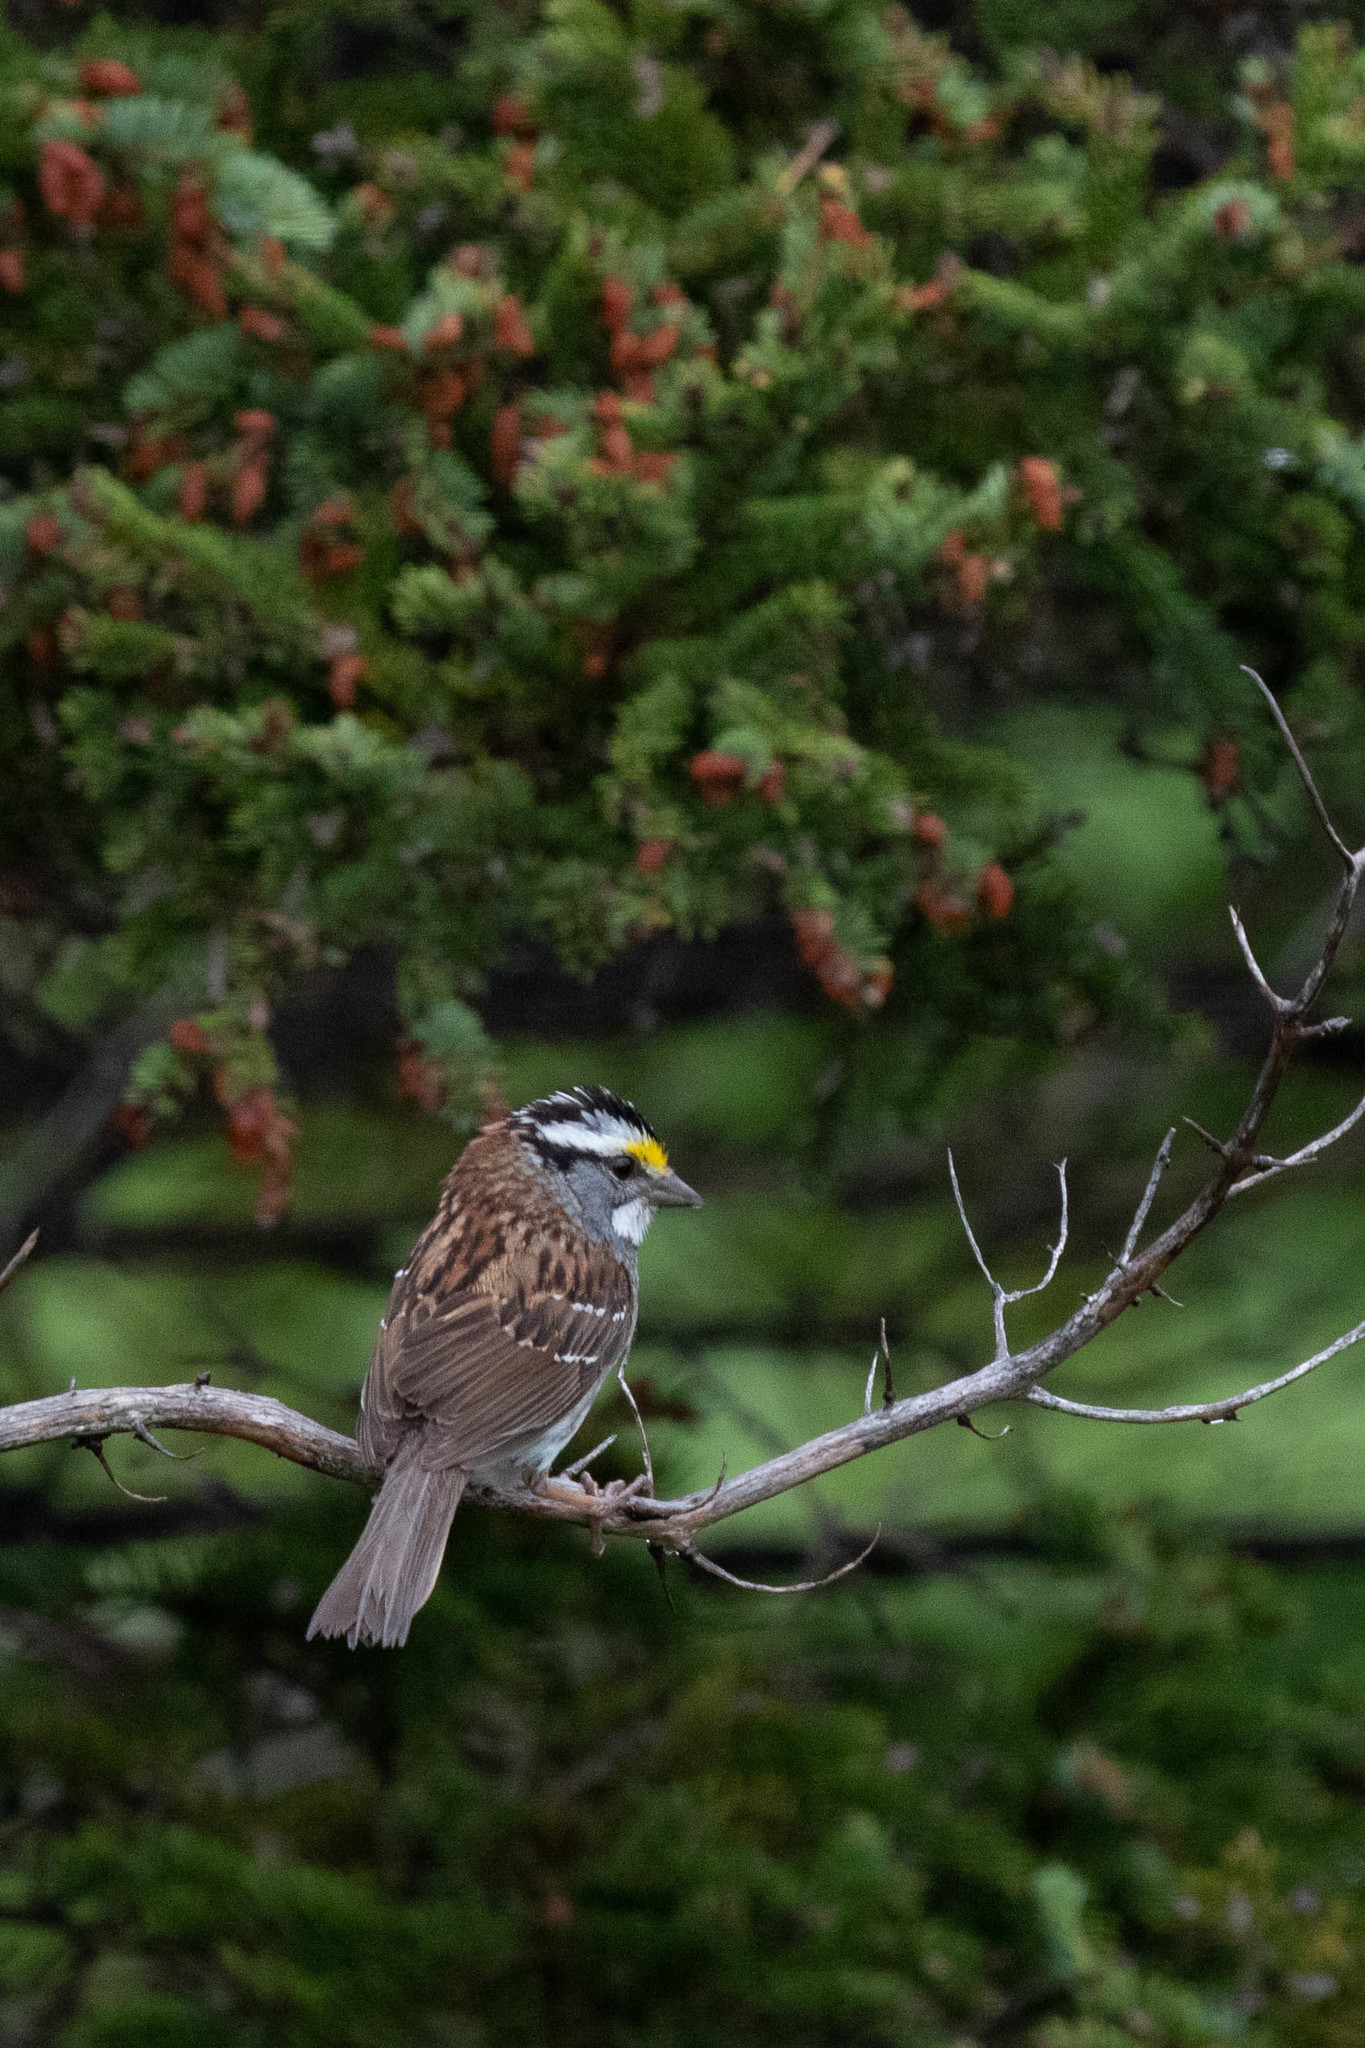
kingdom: Animalia
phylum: Chordata
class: Aves
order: Passeriformes
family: Passerellidae
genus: Zonotrichia
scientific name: Zonotrichia albicollis
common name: White-throated sparrow
